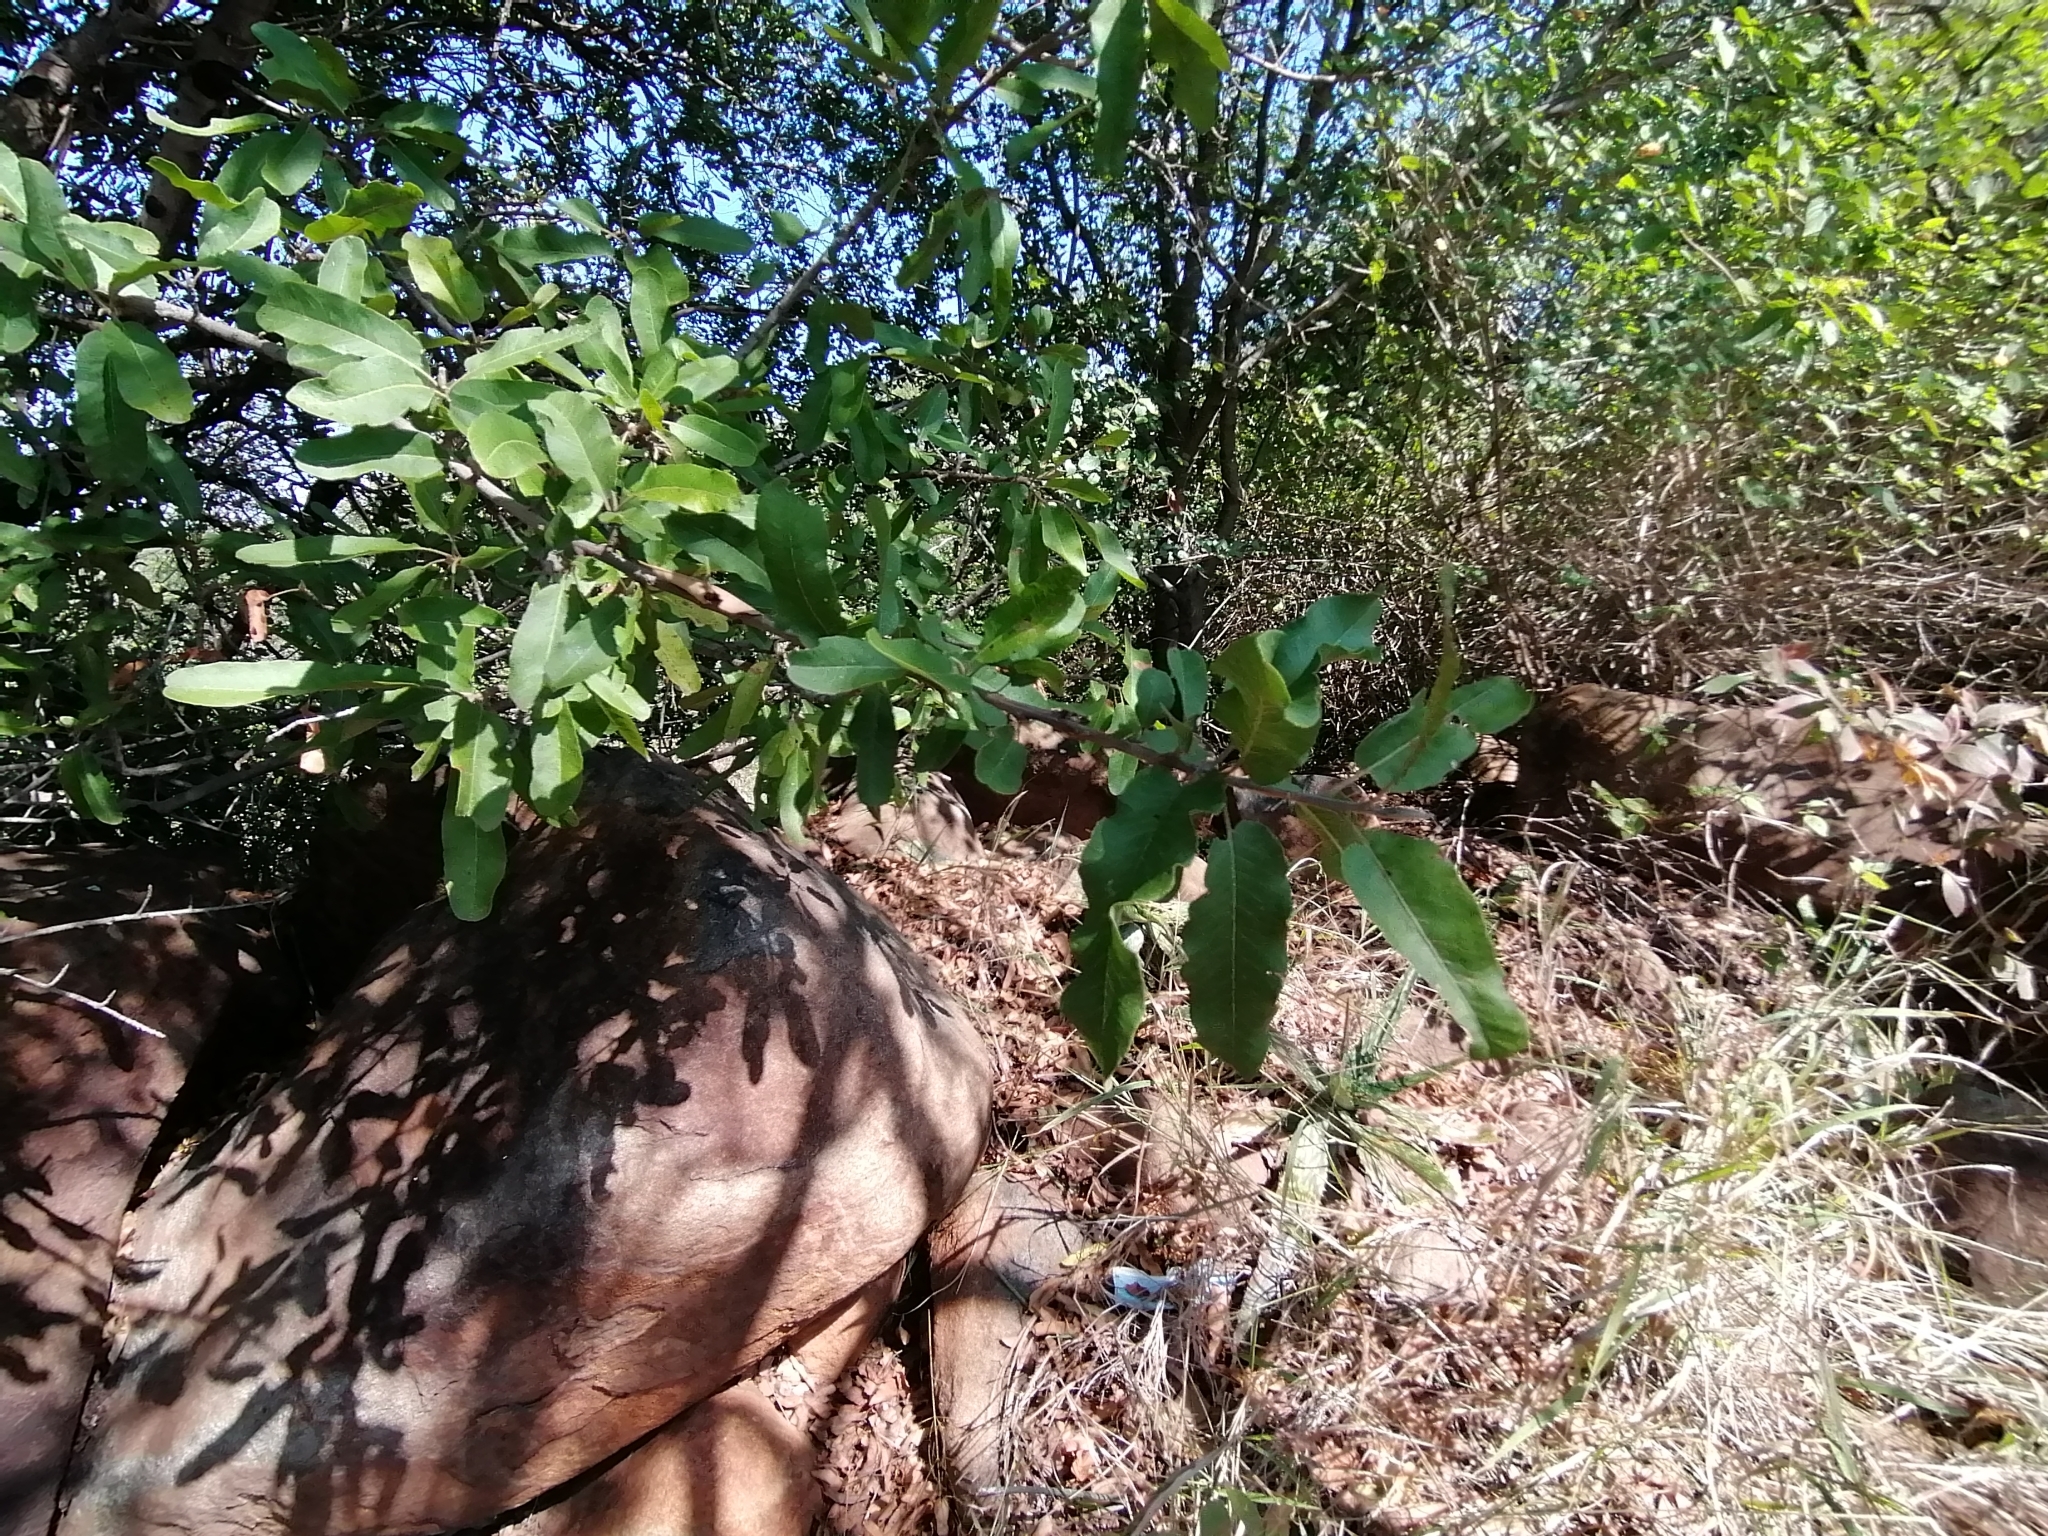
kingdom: Plantae
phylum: Tracheophyta
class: Magnoliopsida
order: Sapindales
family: Sapindaceae
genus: Pappea
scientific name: Pappea capensis
